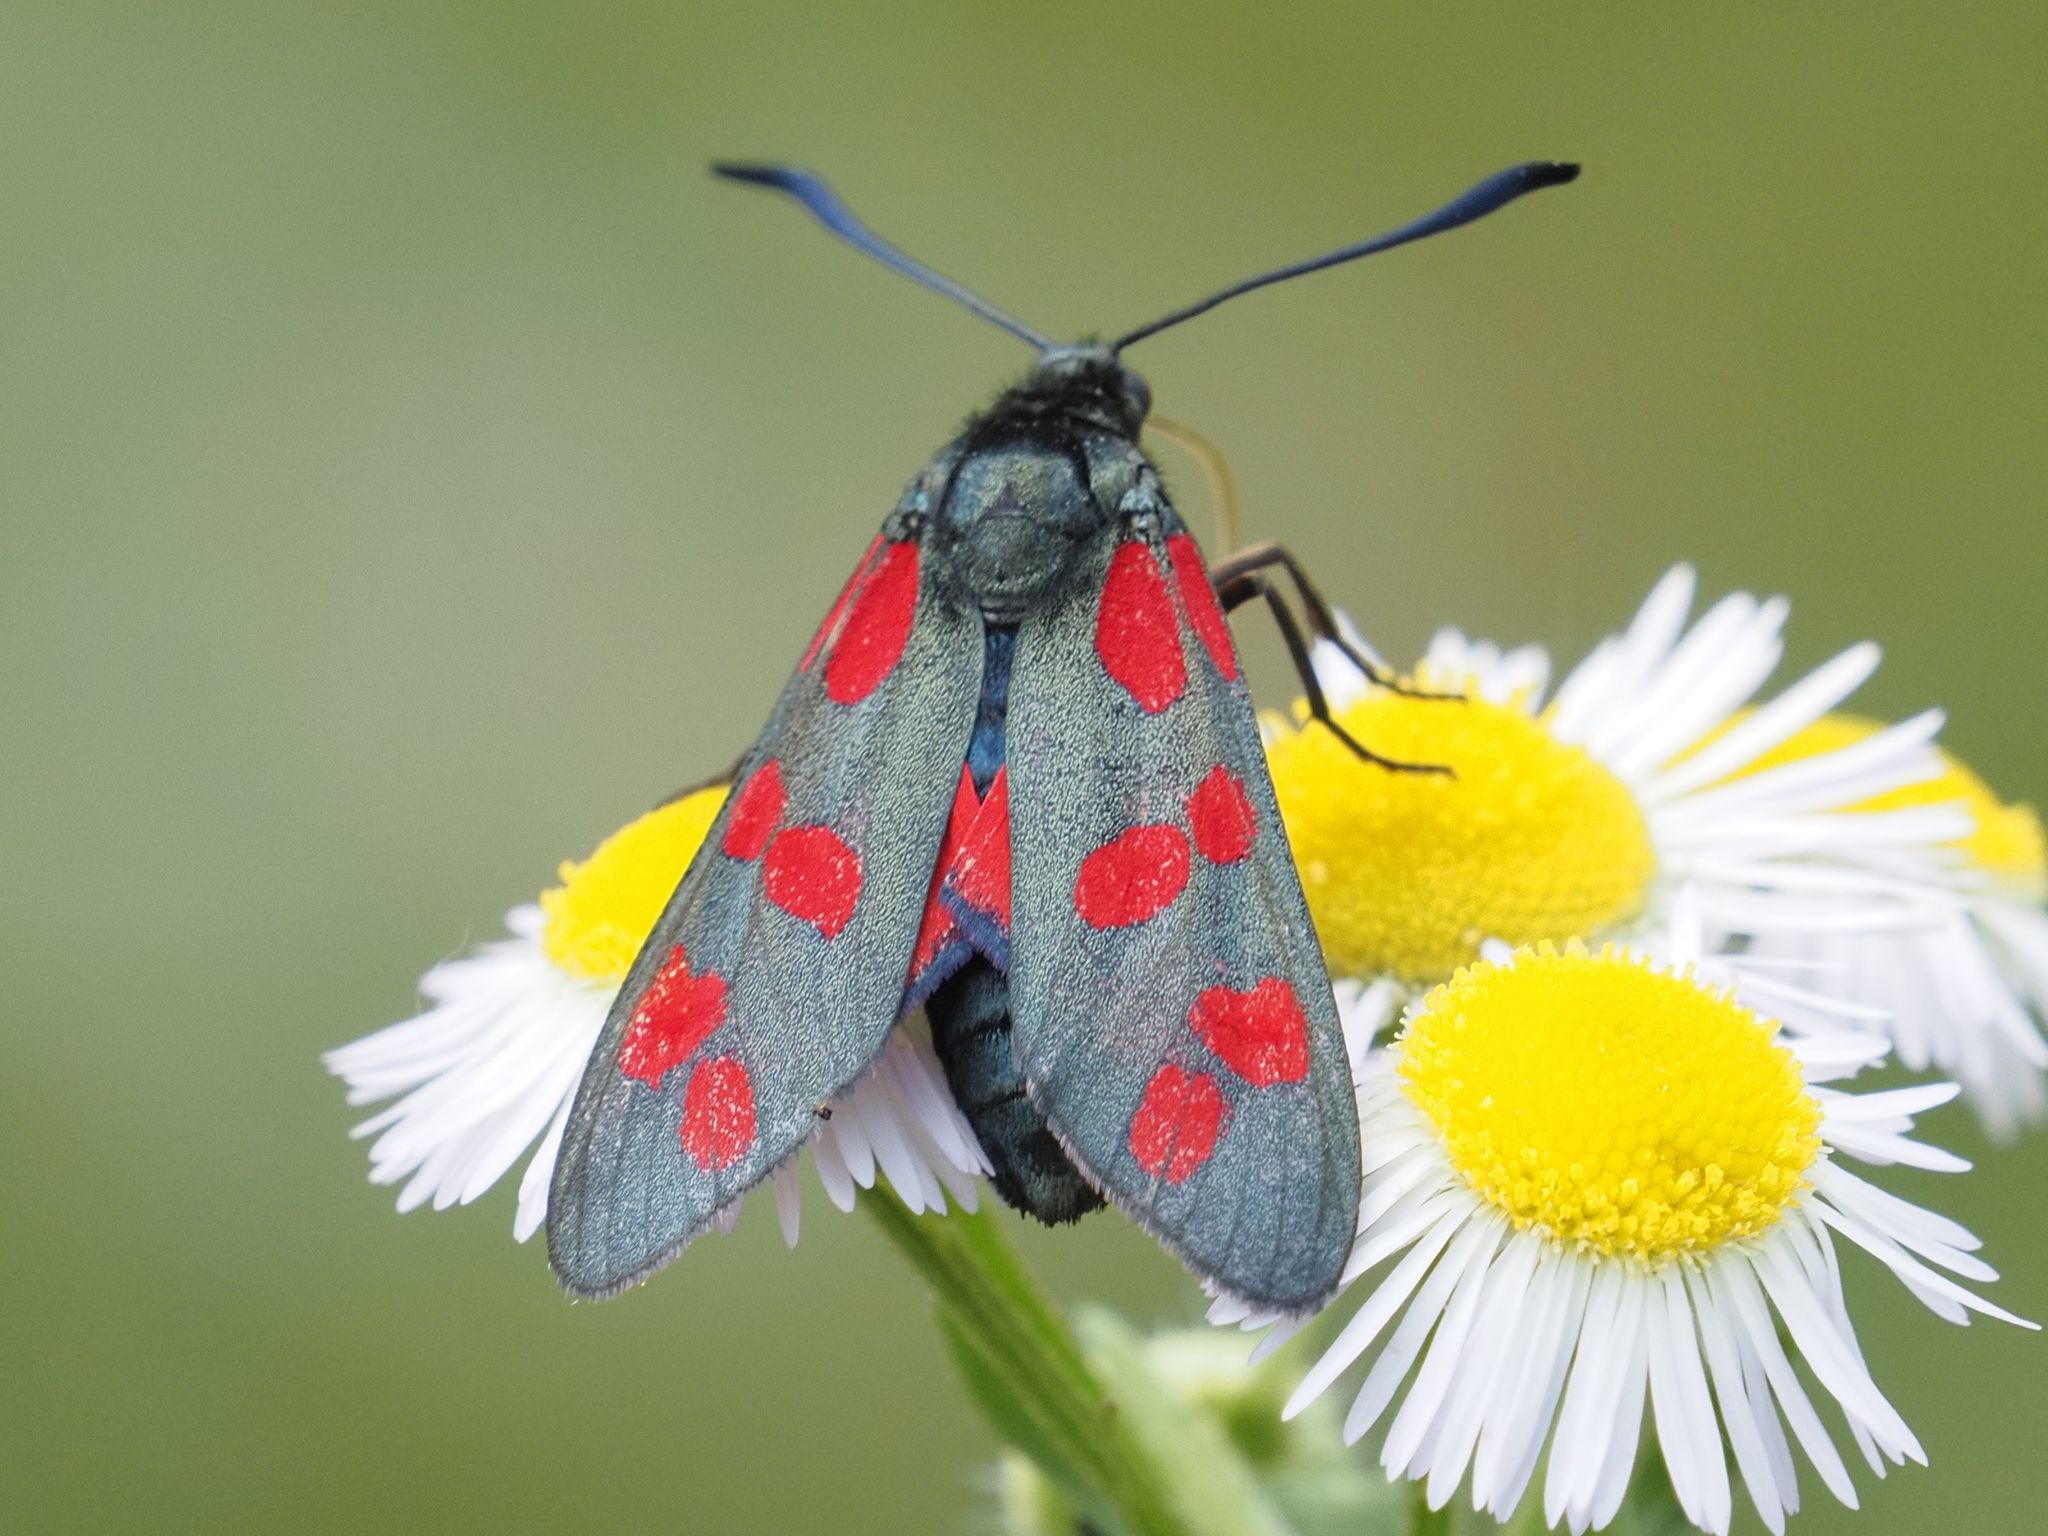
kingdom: Animalia
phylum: Arthropoda
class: Insecta
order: Lepidoptera
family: Zygaenidae
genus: Zygaena
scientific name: Zygaena filipendulae
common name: Six-spot burnet
